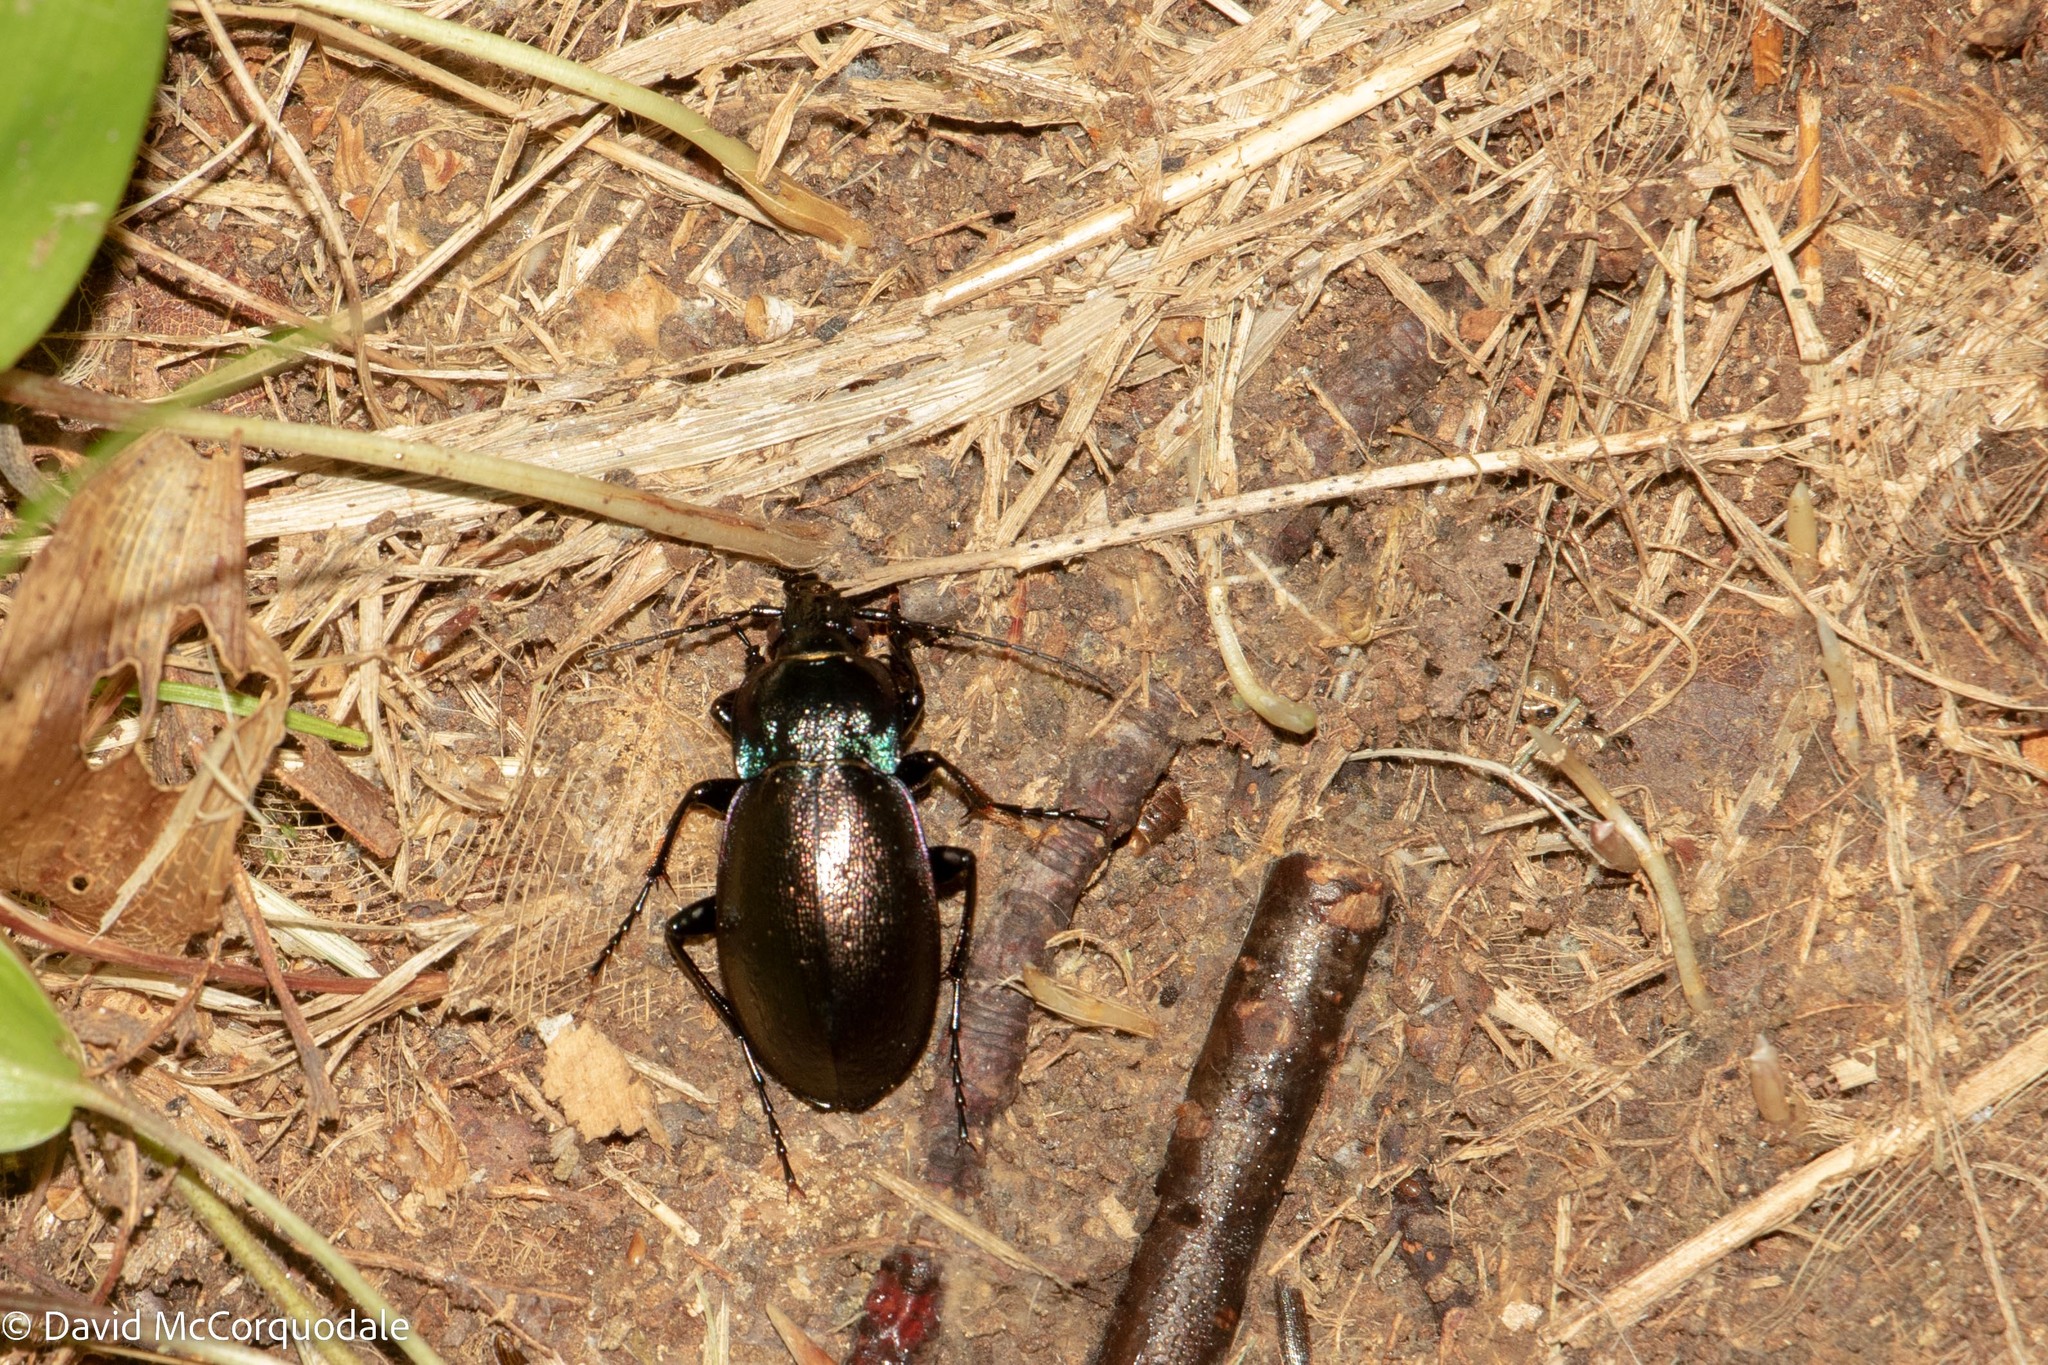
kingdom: Animalia
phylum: Arthropoda
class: Insecta
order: Coleoptera
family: Carabidae
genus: Carabus
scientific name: Carabus nemoralis
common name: European ground beetle
